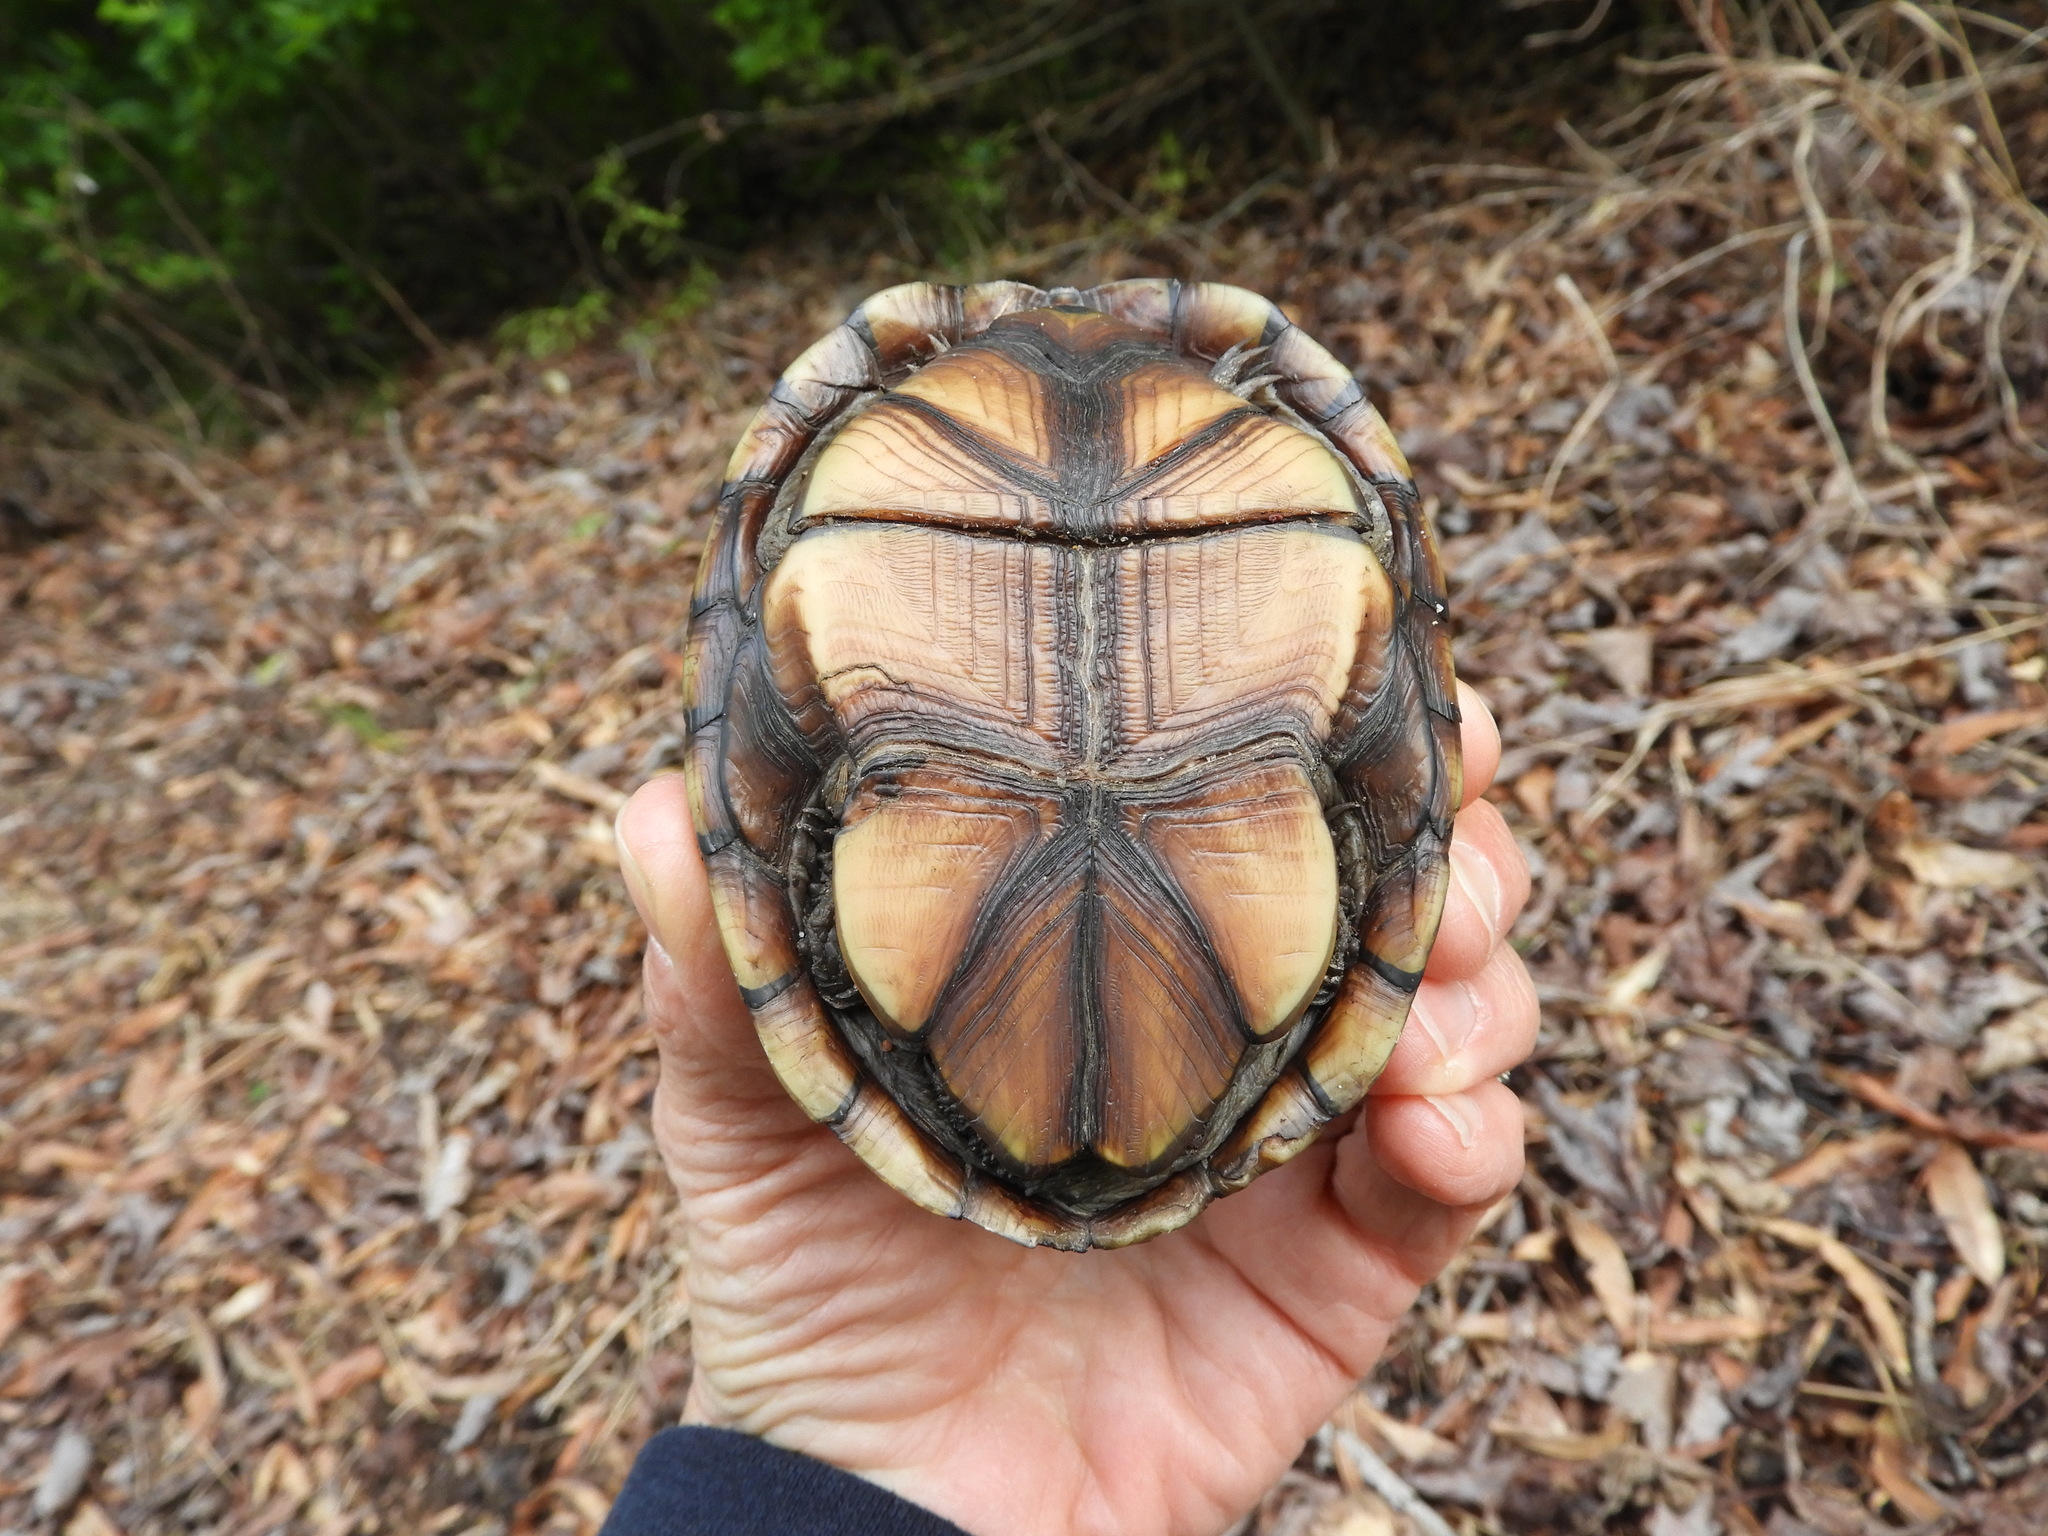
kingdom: Animalia
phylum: Chordata
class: Testudines
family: Kinosternidae
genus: Kinosternon
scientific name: Kinosternon subrubrum
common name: Eastern mud turtle
